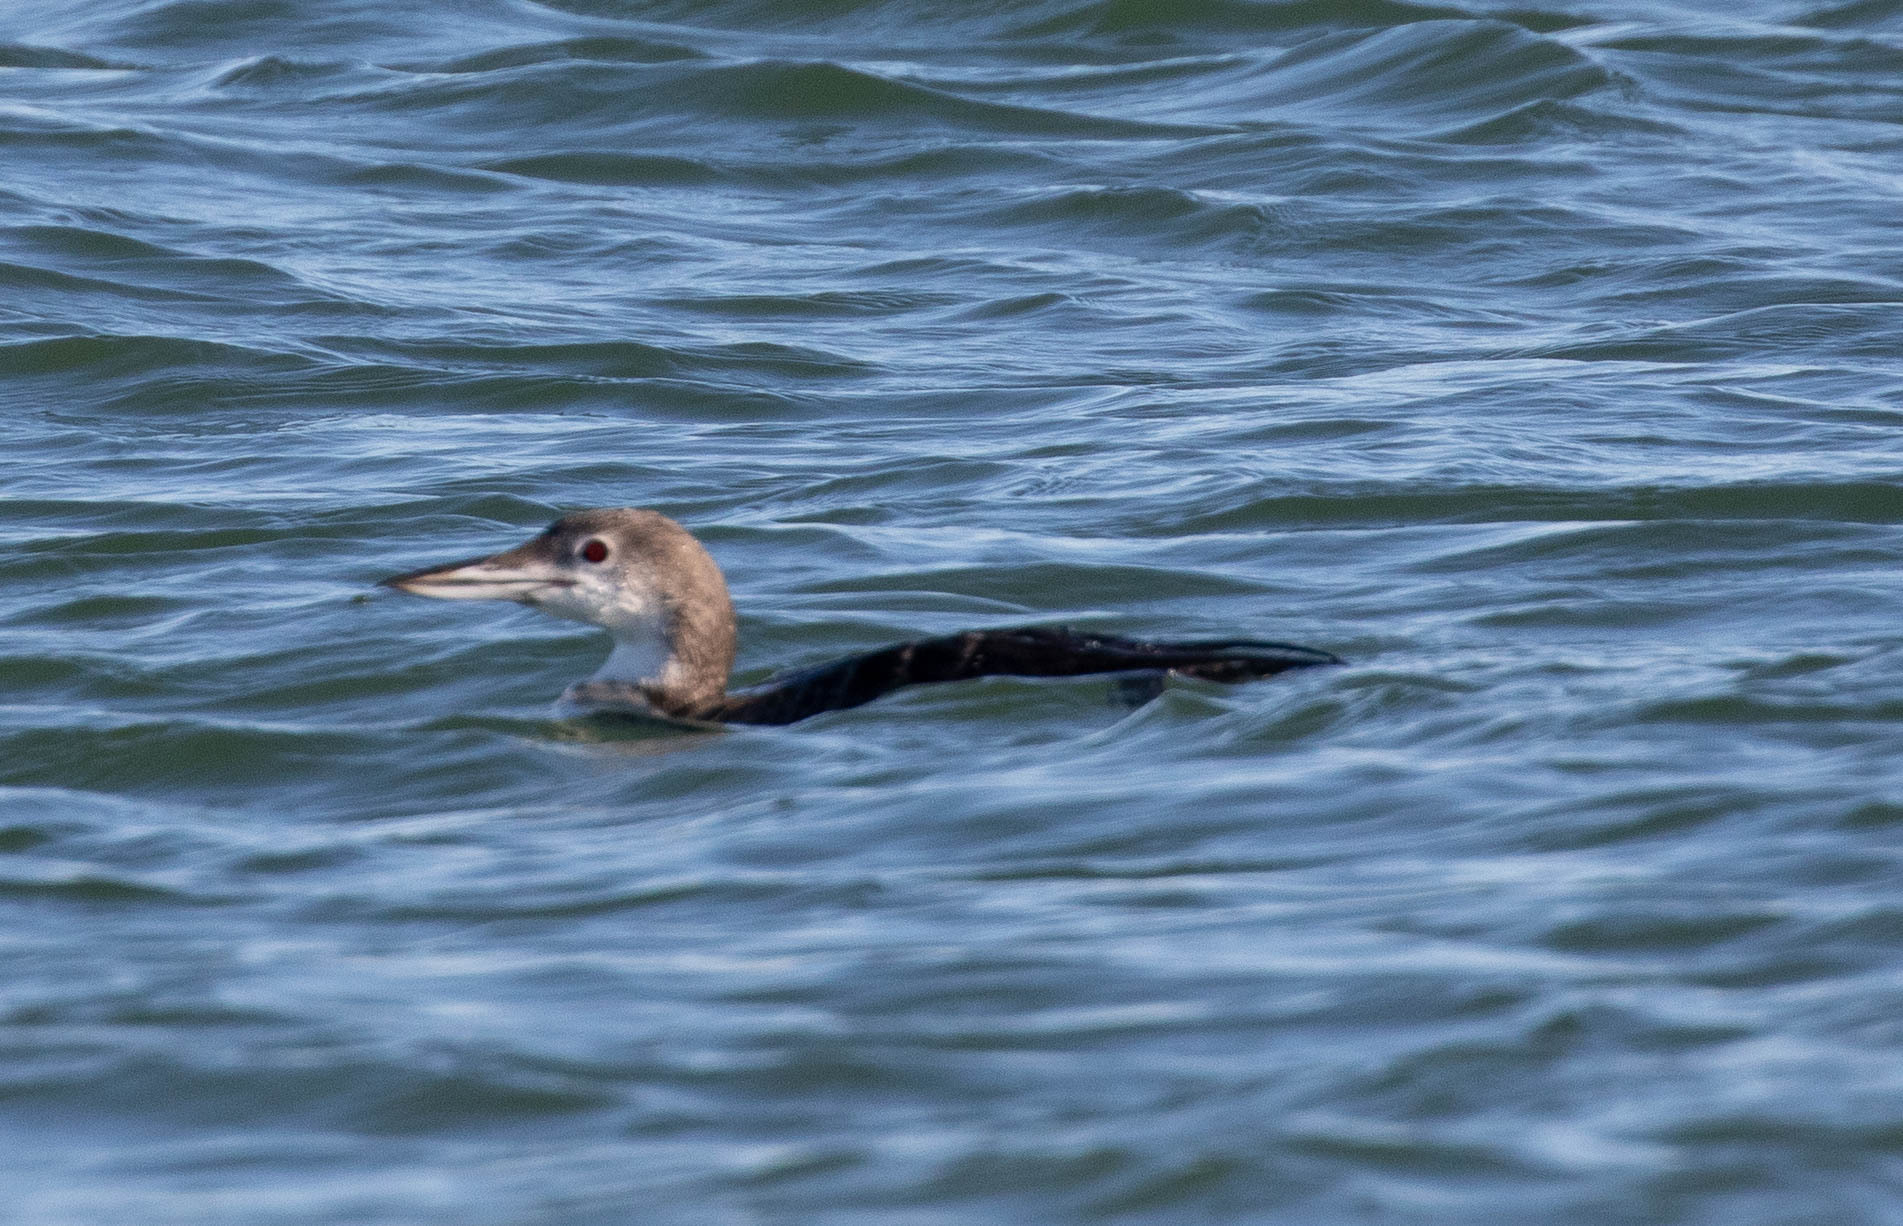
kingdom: Animalia
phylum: Chordata
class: Aves
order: Gaviiformes
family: Gaviidae
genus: Gavia
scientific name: Gavia immer
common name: Common loon
